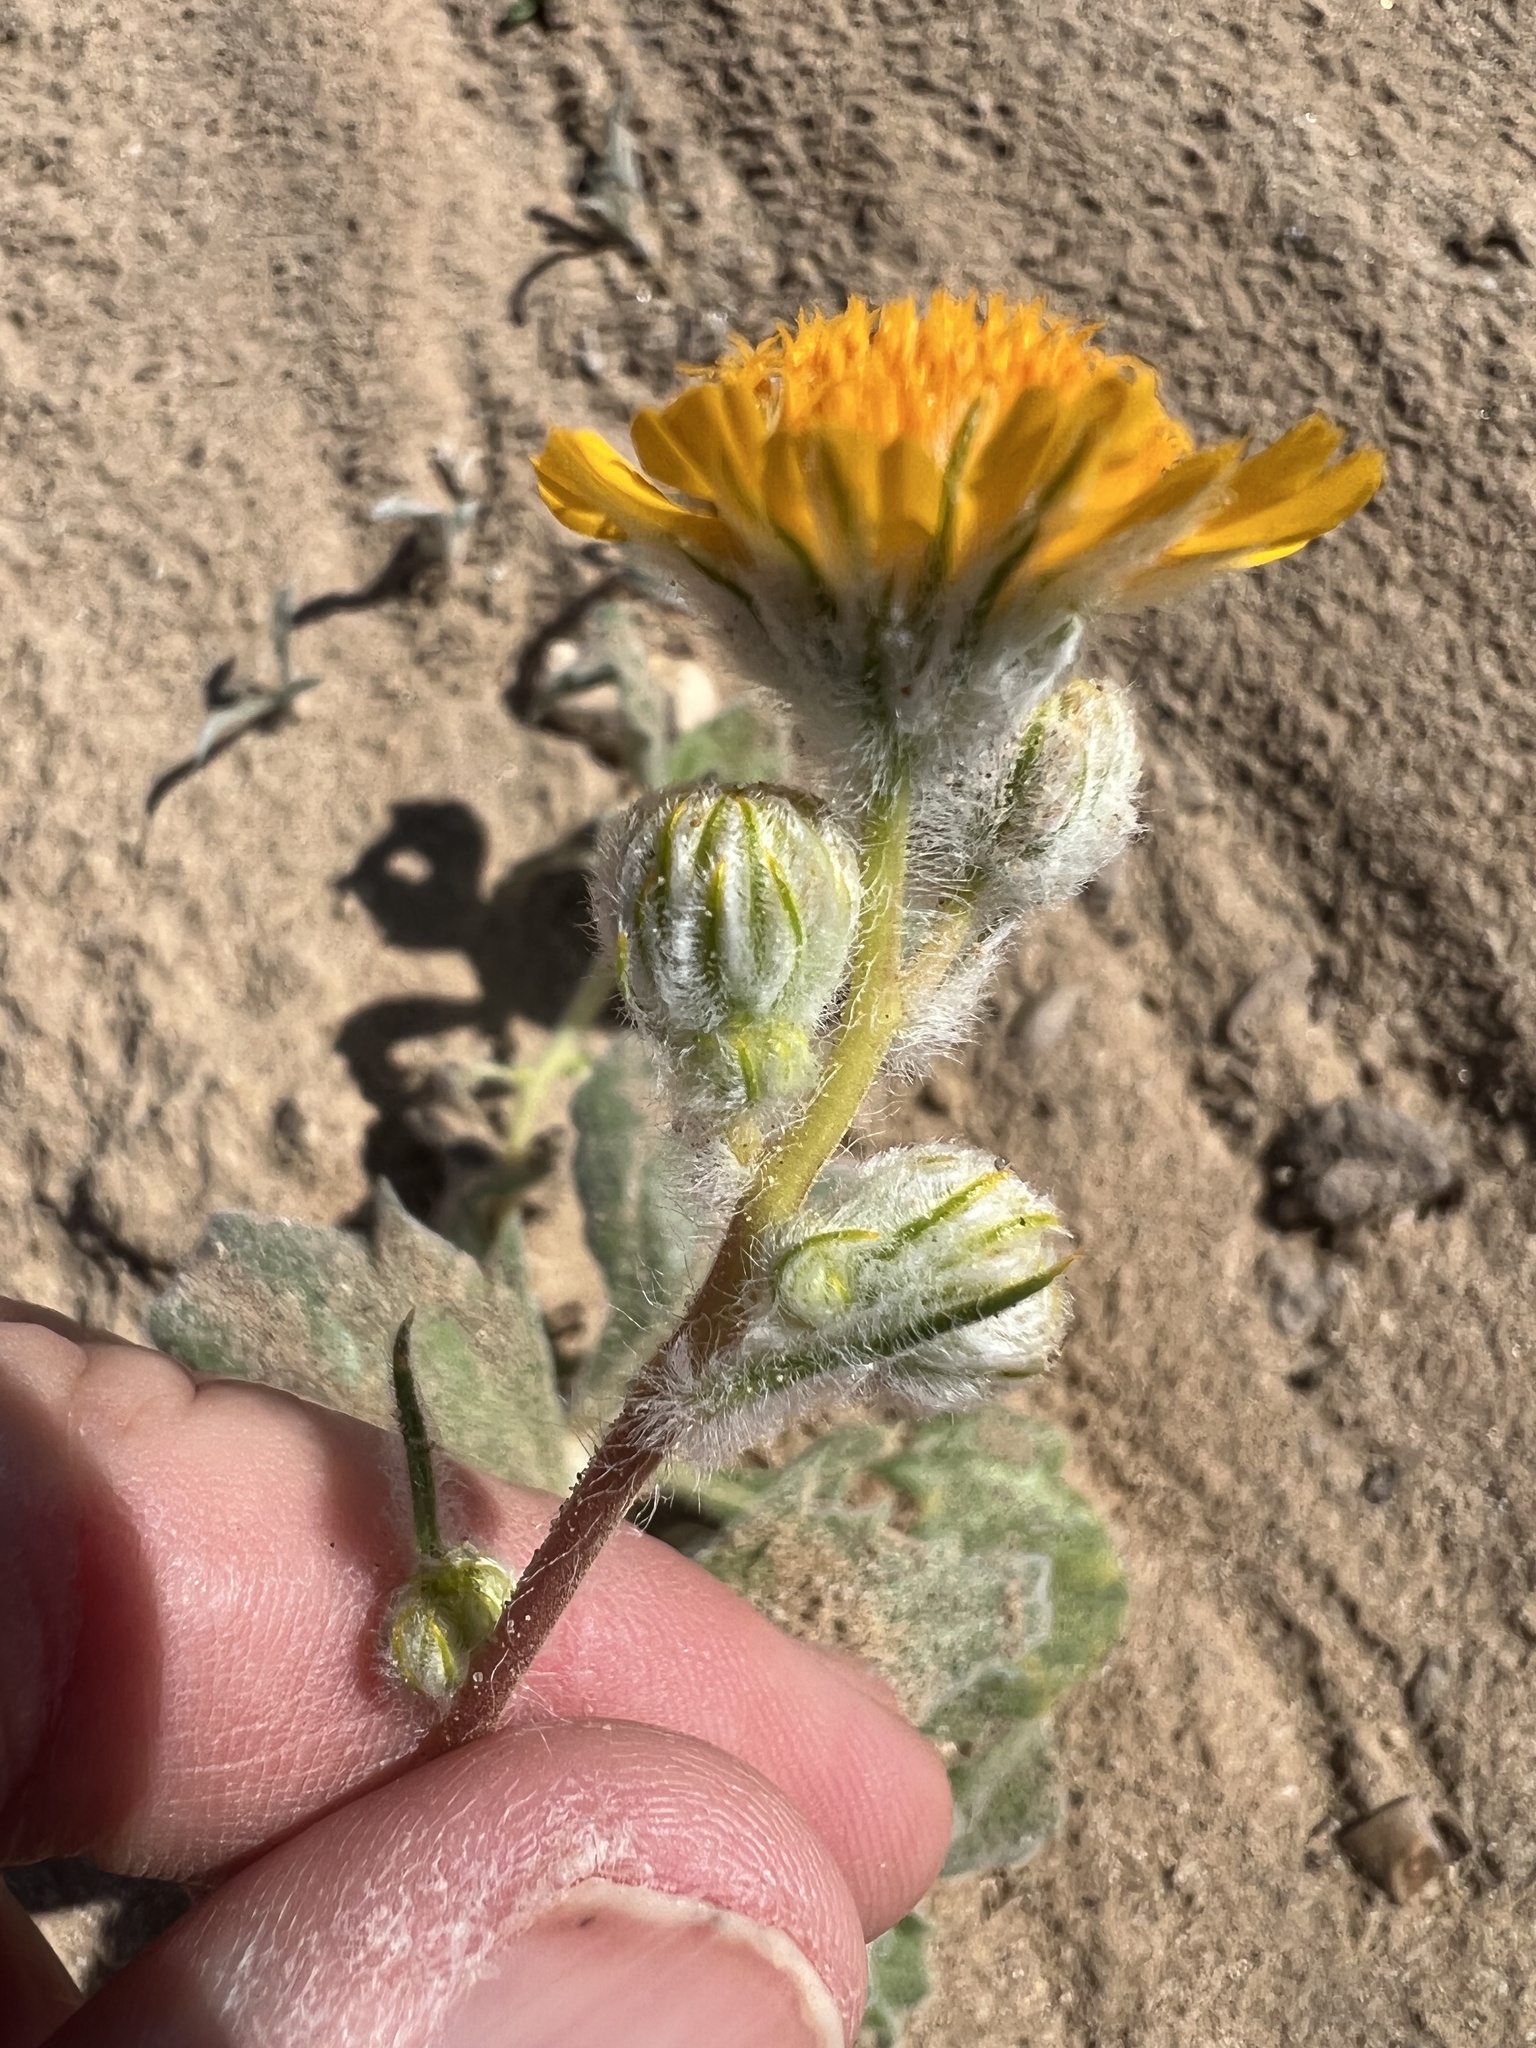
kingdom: Plantae
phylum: Tracheophyta
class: Magnoliopsida
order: Asterales
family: Asteraceae
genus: Geraea
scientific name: Geraea canescens
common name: Desert-gold
